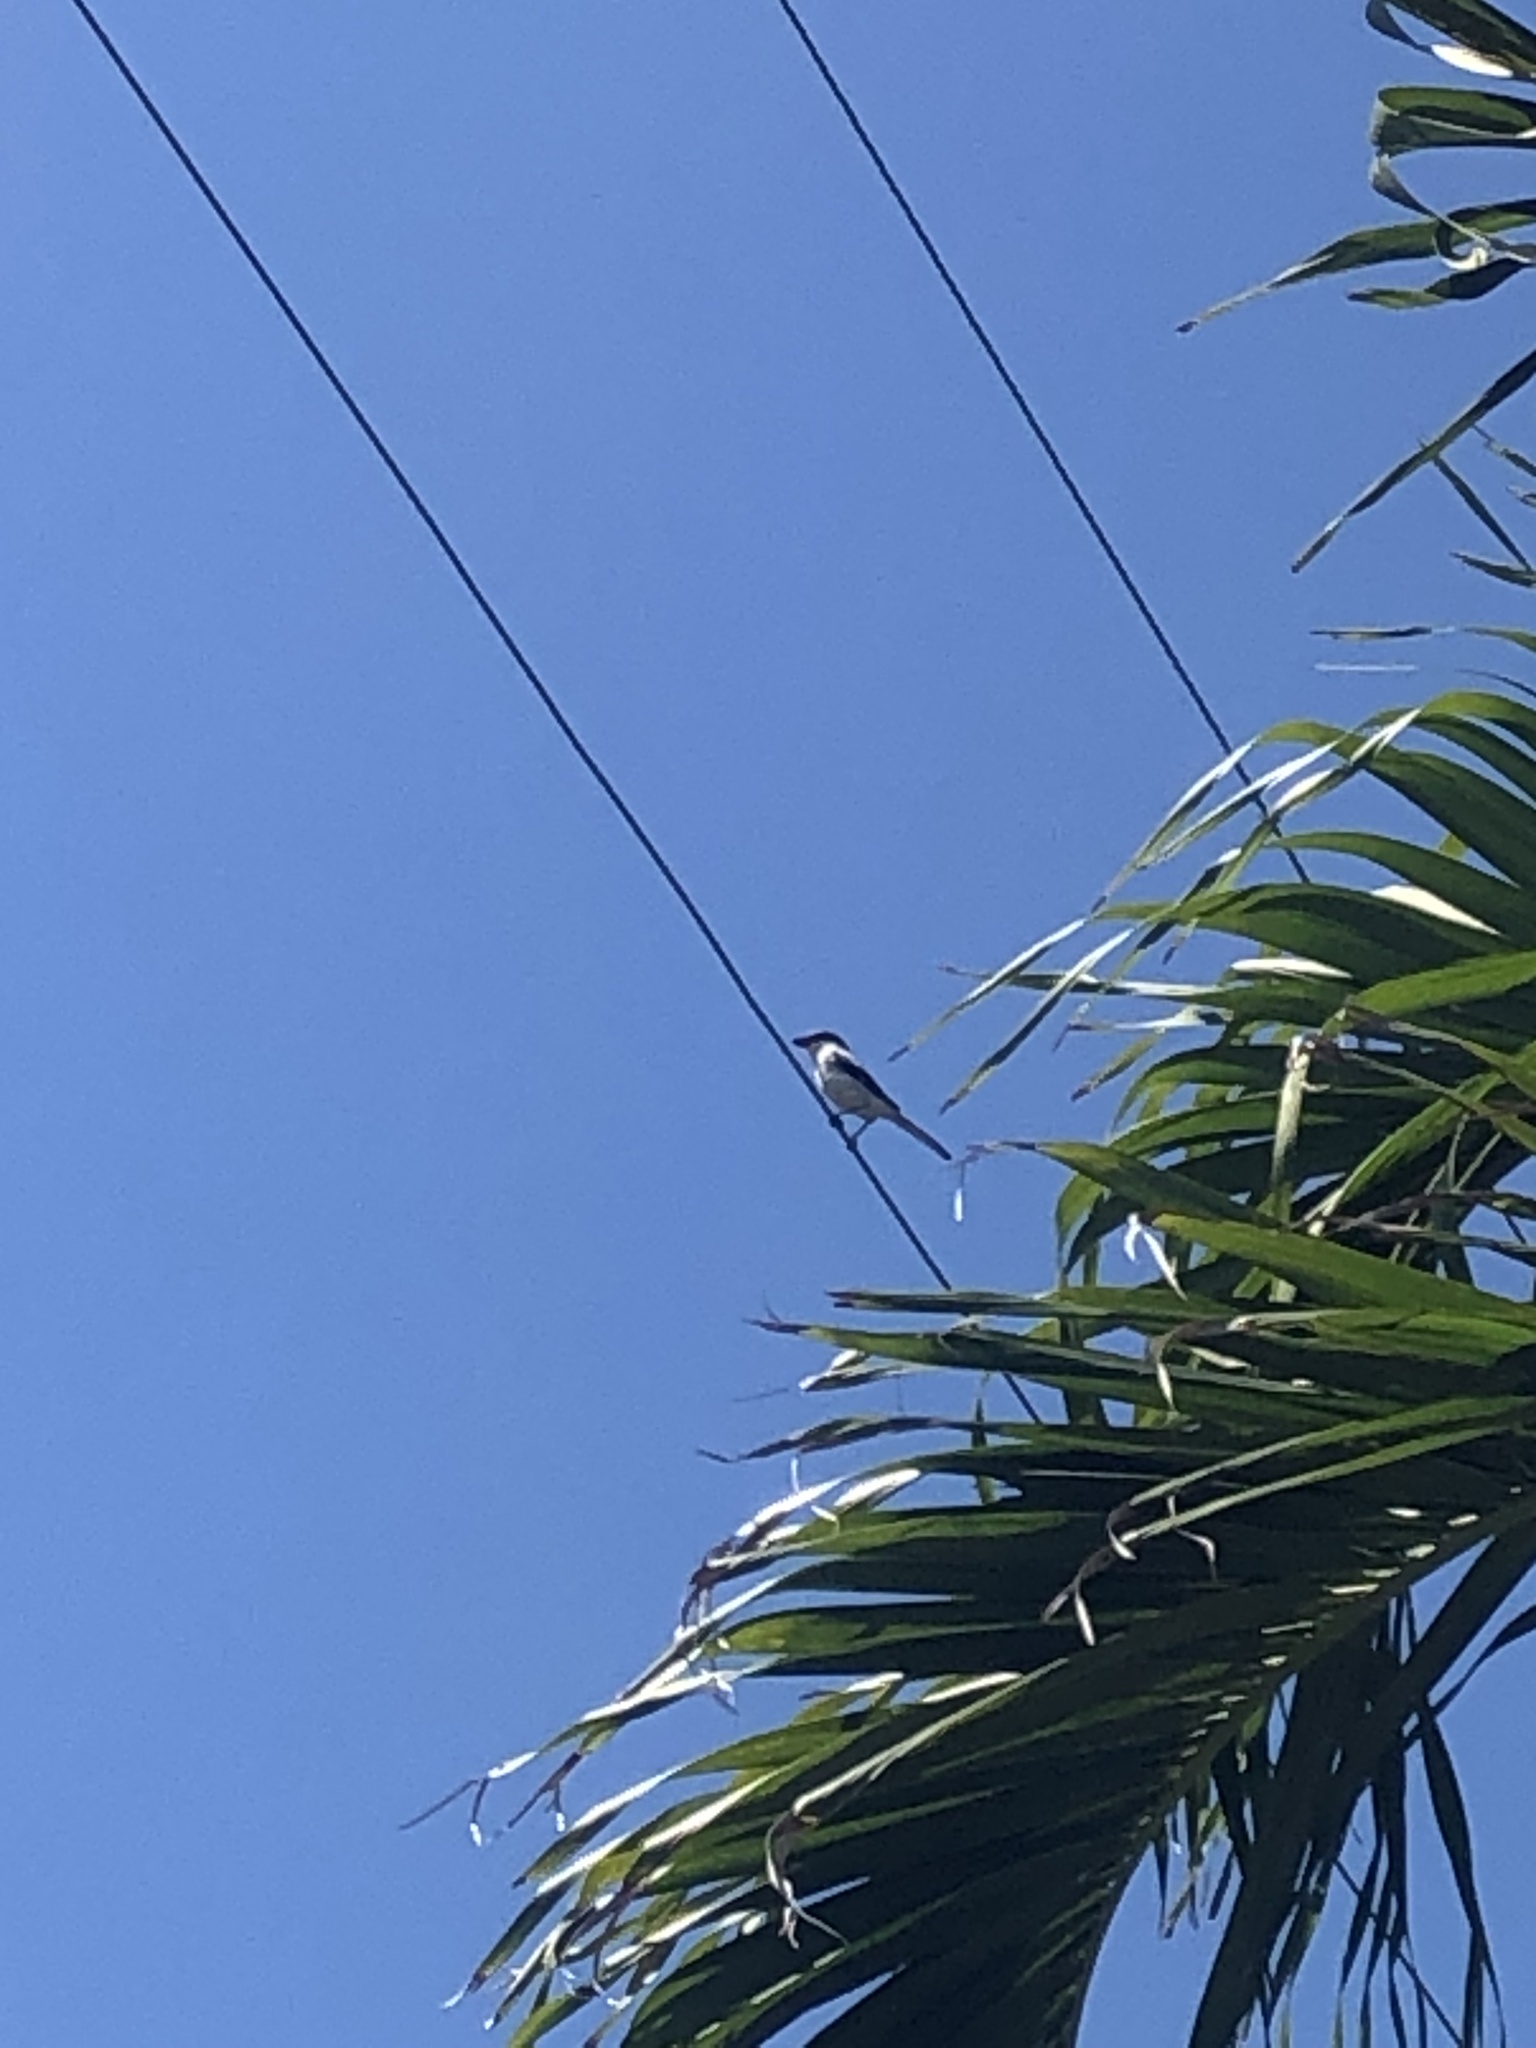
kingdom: Animalia
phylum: Chordata
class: Aves
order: Passeriformes
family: Laniidae
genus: Lanius
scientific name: Lanius ludovicianus
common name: Loggerhead shrike
